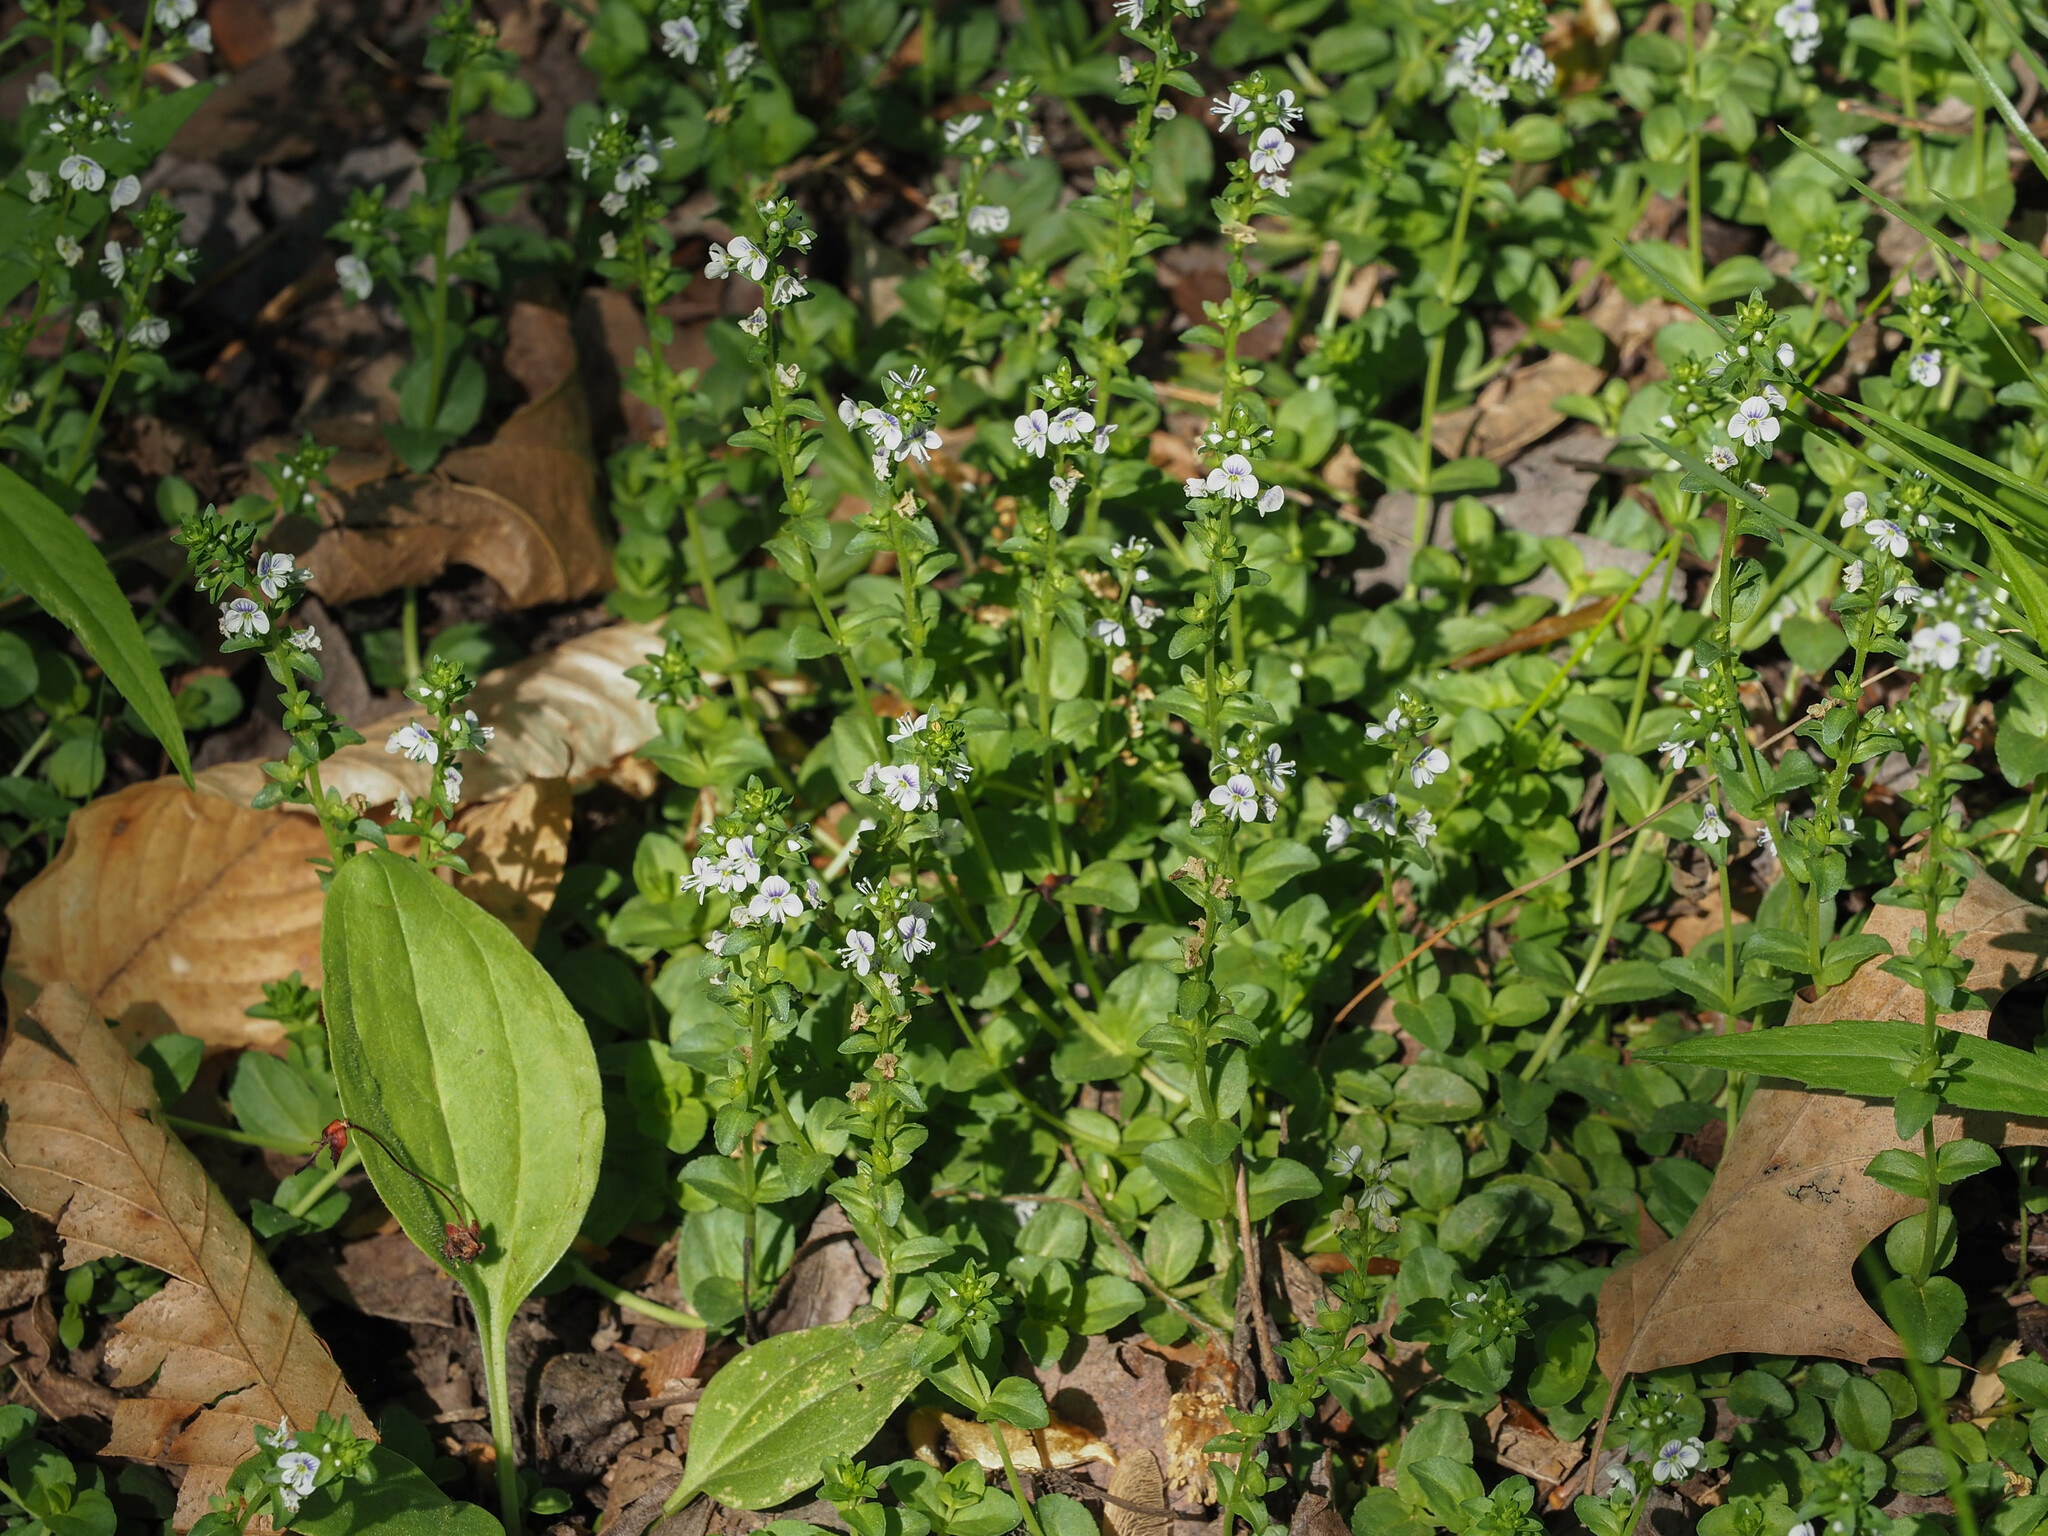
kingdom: Plantae
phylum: Tracheophyta
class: Magnoliopsida
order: Lamiales
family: Plantaginaceae
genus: Veronica
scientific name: Veronica serpyllifolia
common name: Thyme-leaved speedwell
